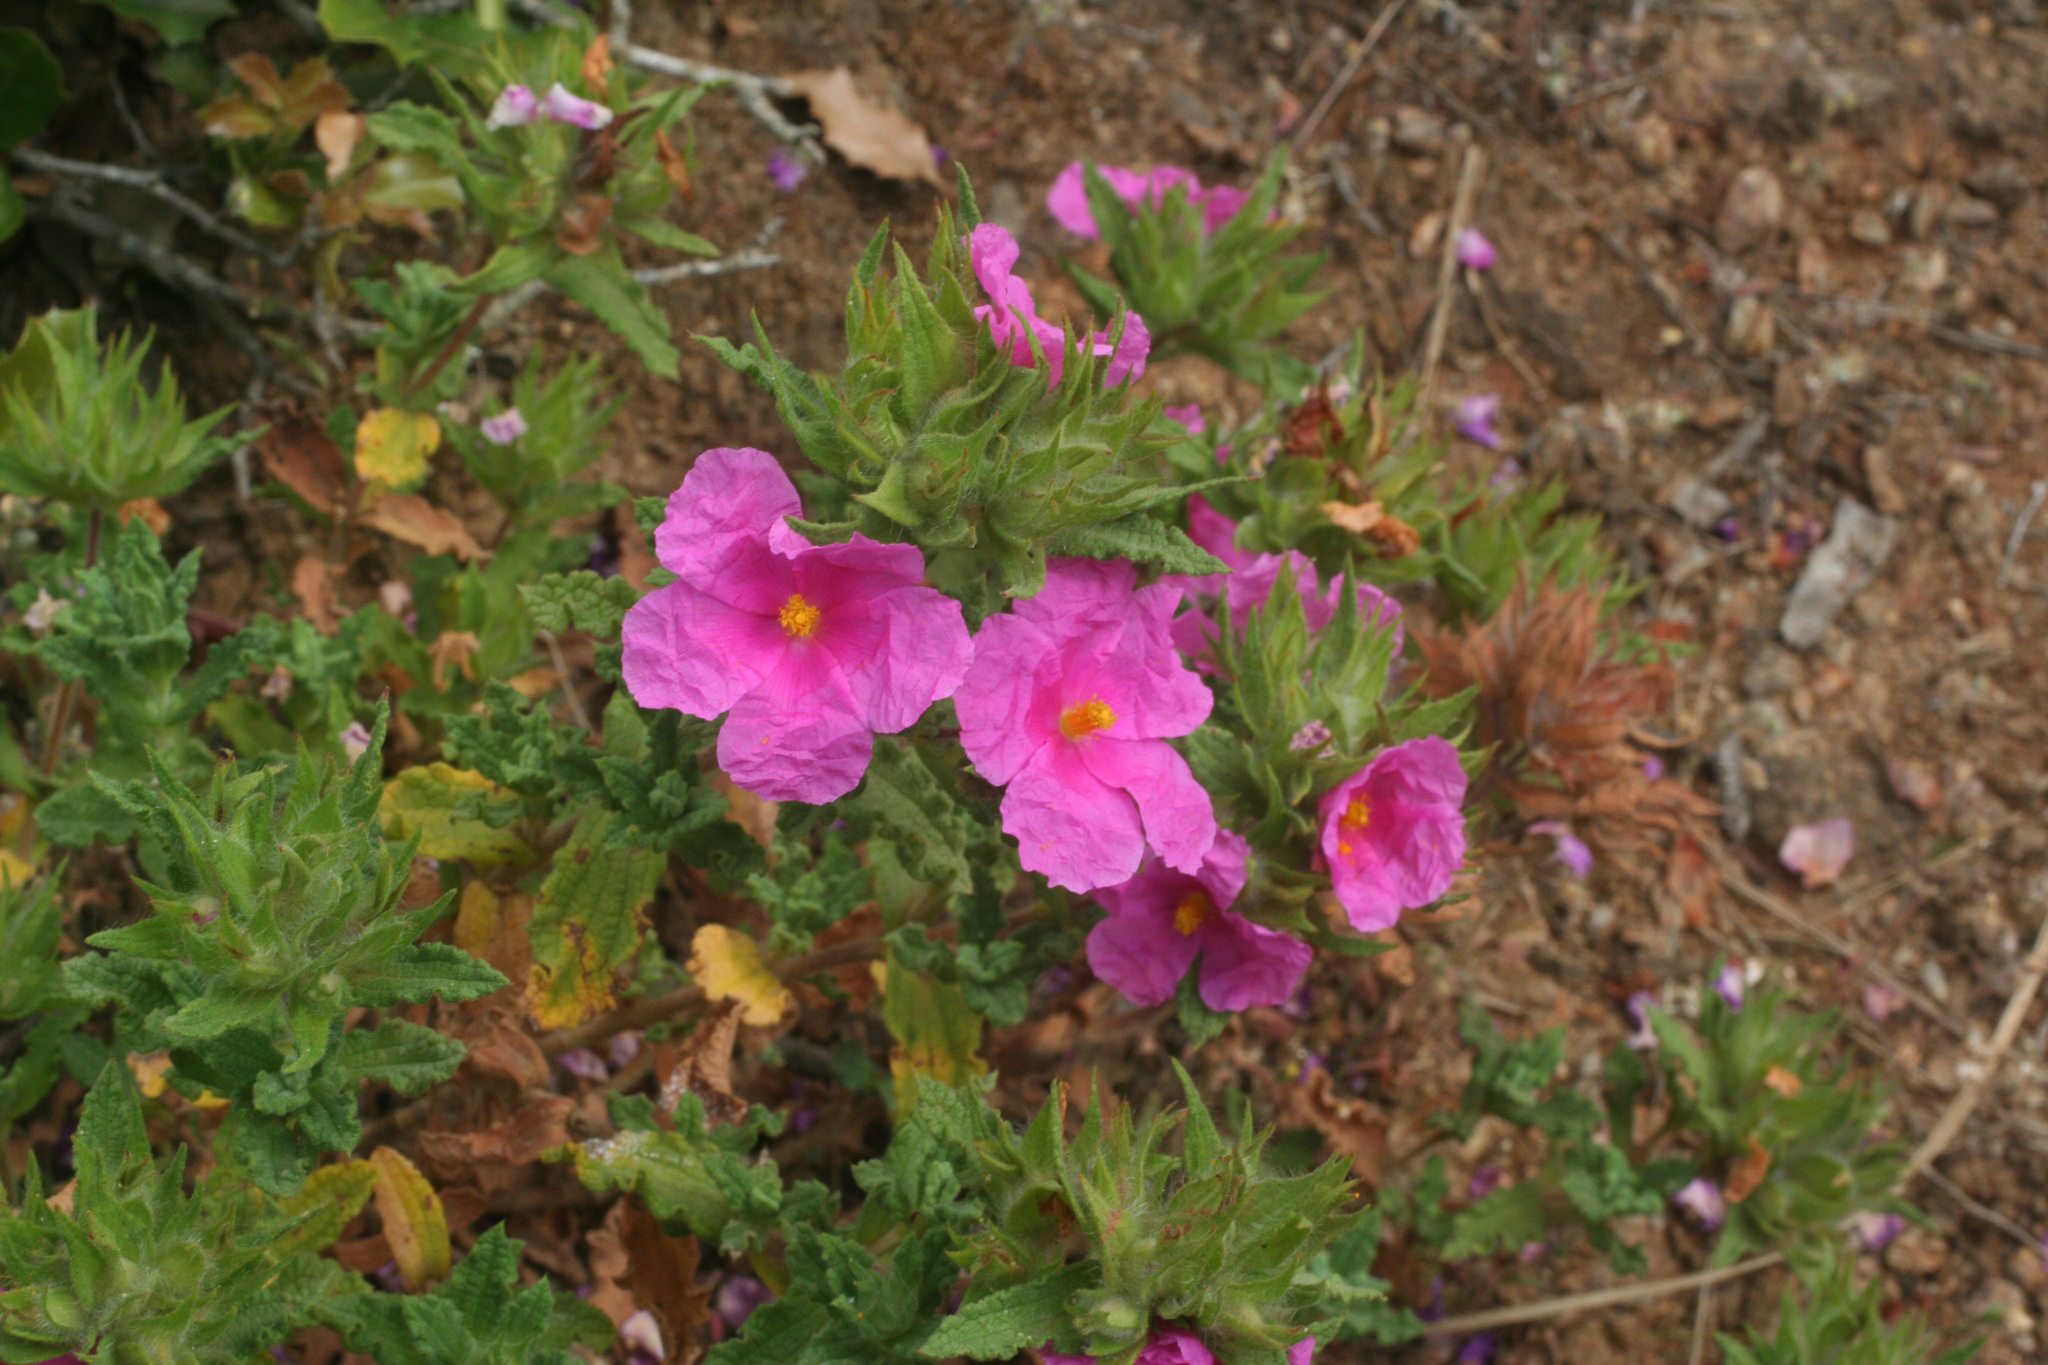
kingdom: Plantae
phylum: Tracheophyta
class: Magnoliopsida
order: Malvales
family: Cistaceae
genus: Cistus
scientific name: Cistus crispus
